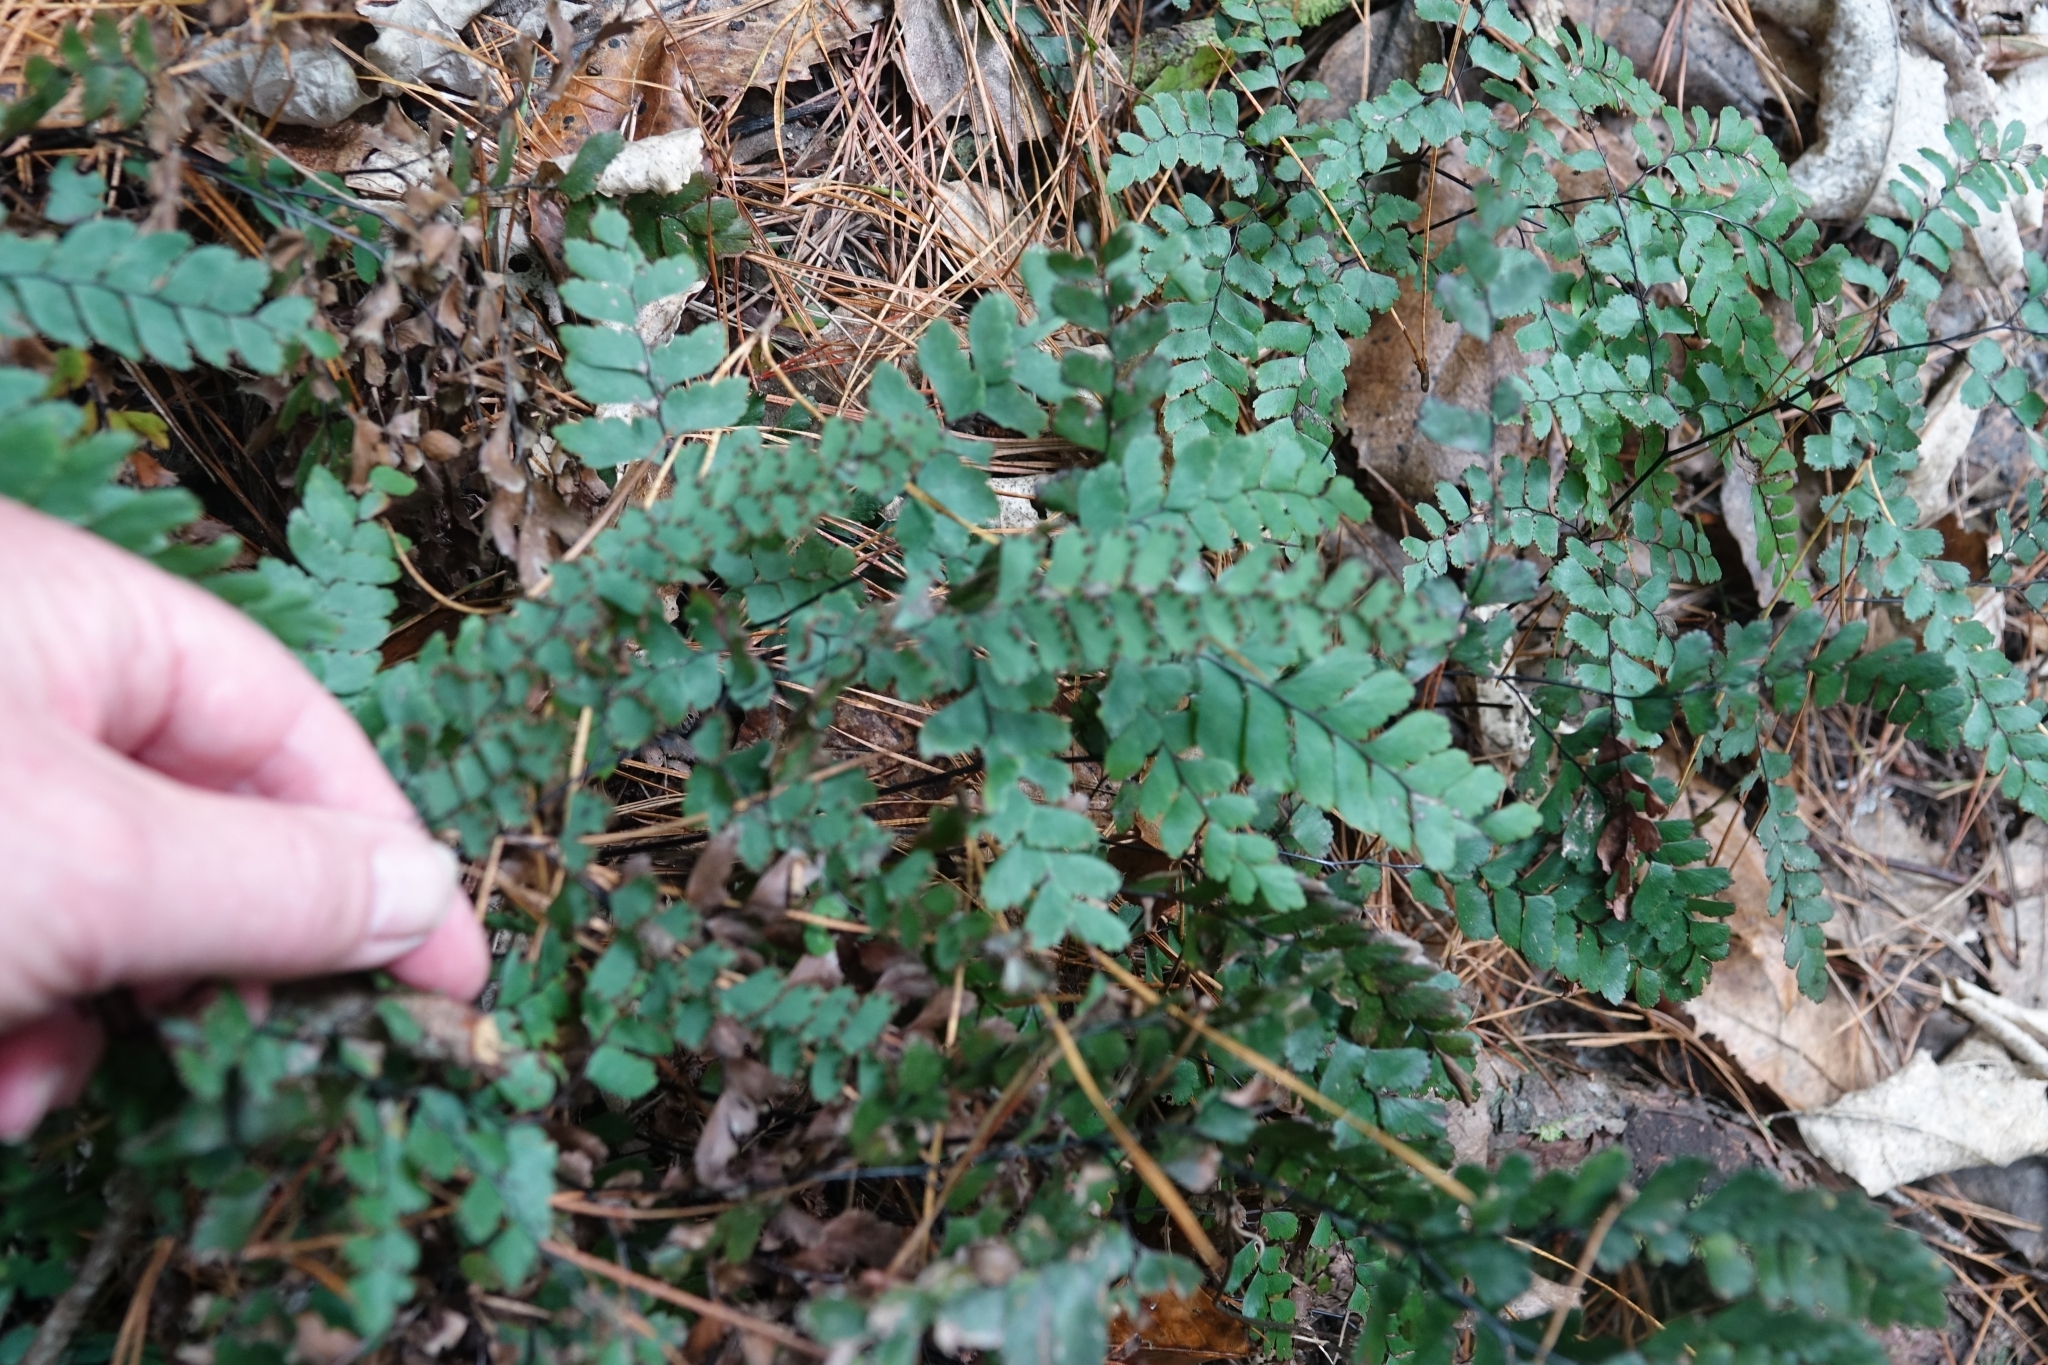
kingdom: Plantae
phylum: Tracheophyta
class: Polypodiopsida
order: Polypodiales
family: Pteridaceae
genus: Adiantum
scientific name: Adiantum cunninghamii
